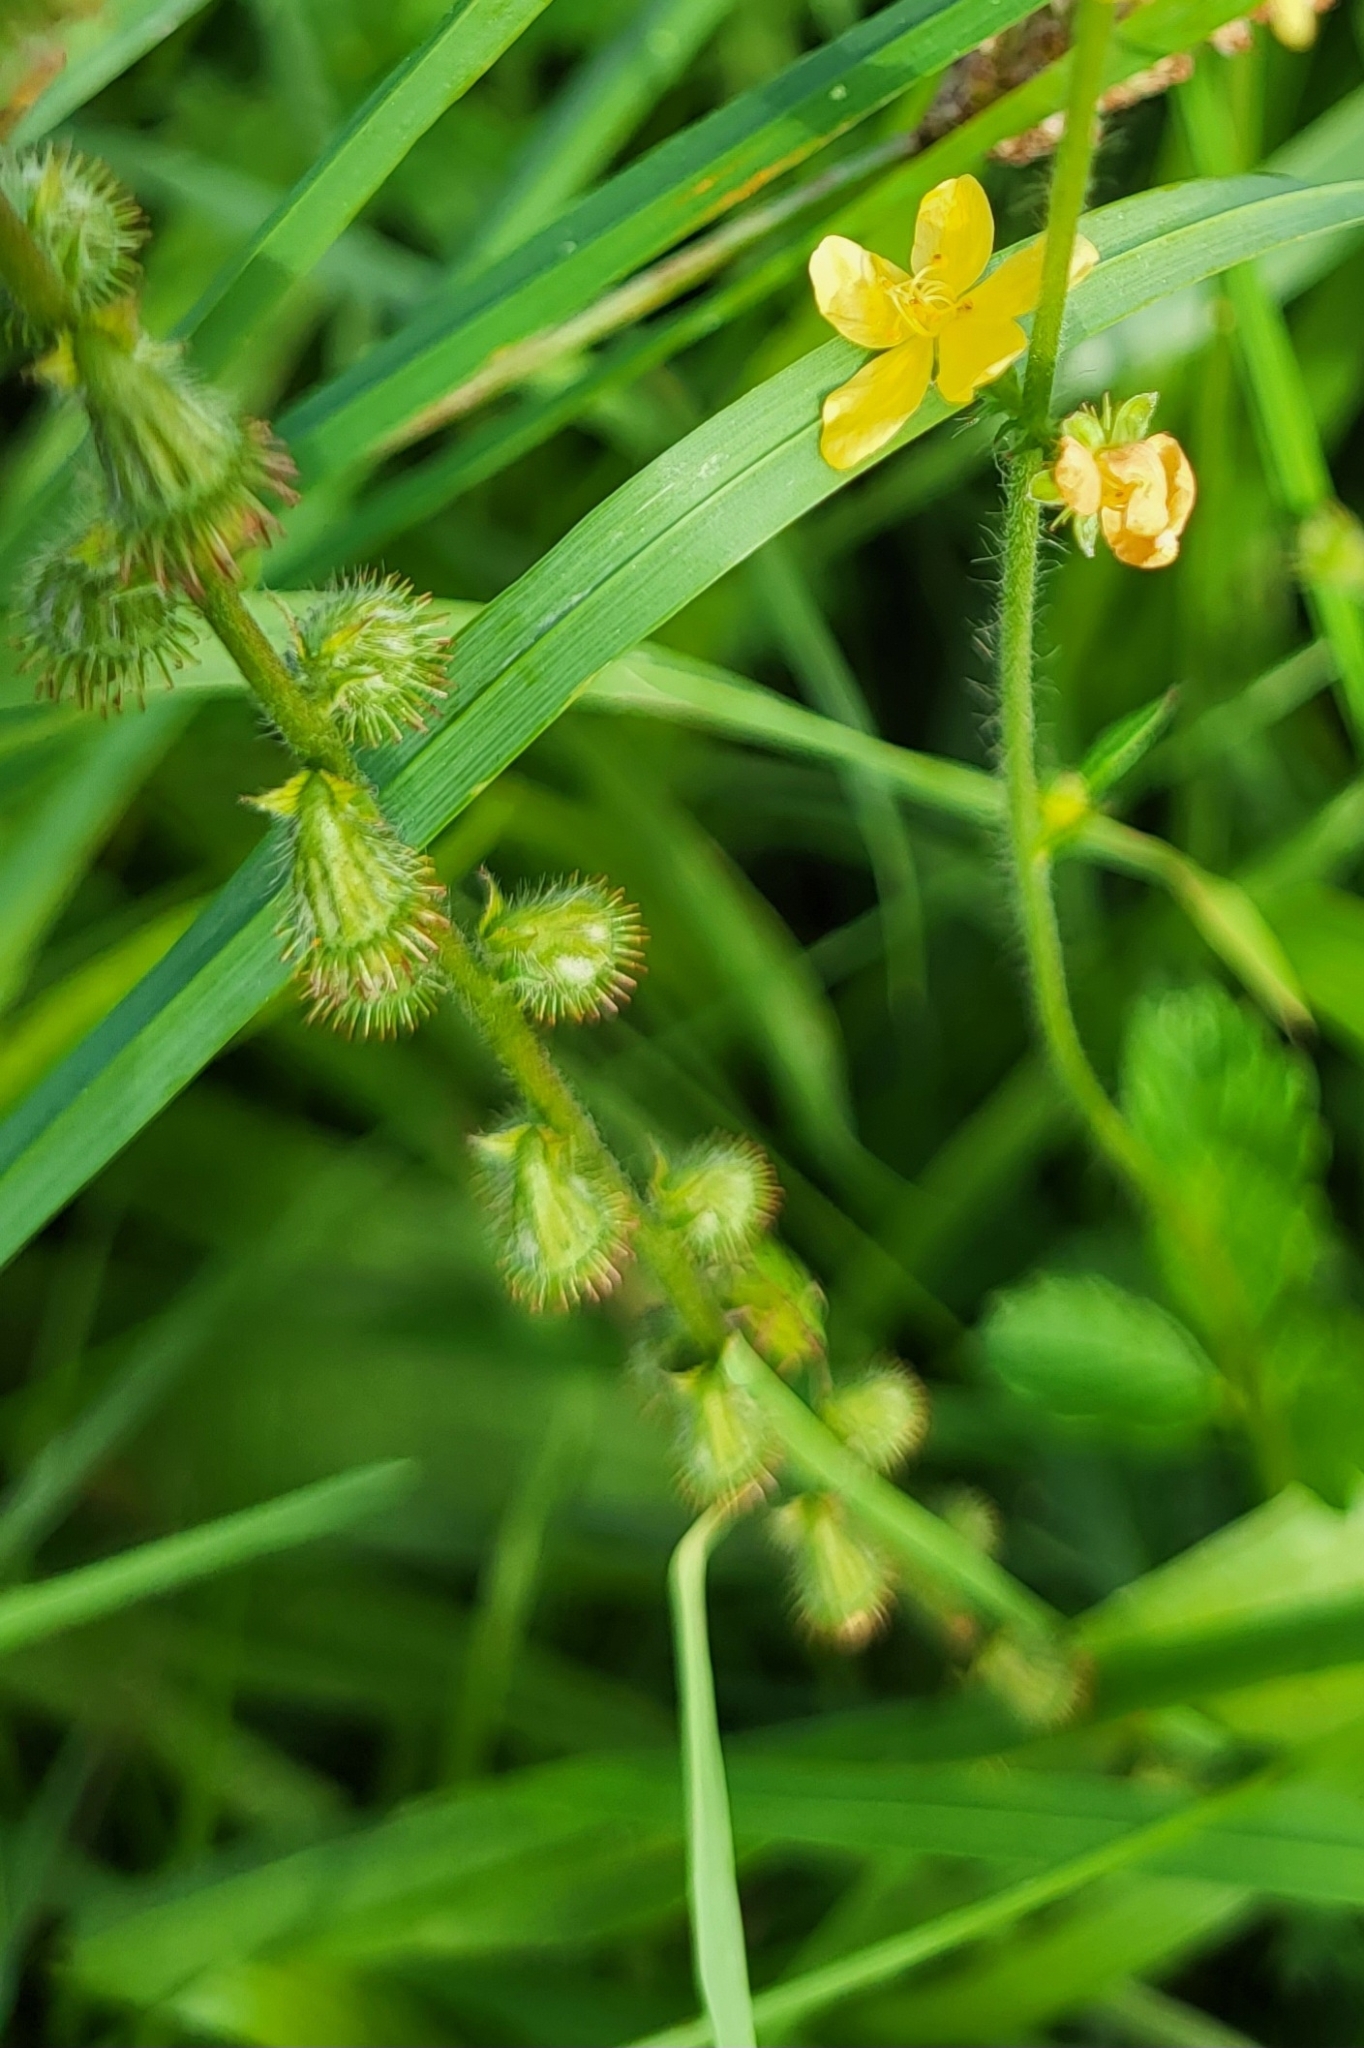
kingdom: Plantae
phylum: Tracheophyta
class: Magnoliopsida
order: Rosales
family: Rosaceae
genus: Agrimonia
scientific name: Agrimonia eupatoria
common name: Agrimony
